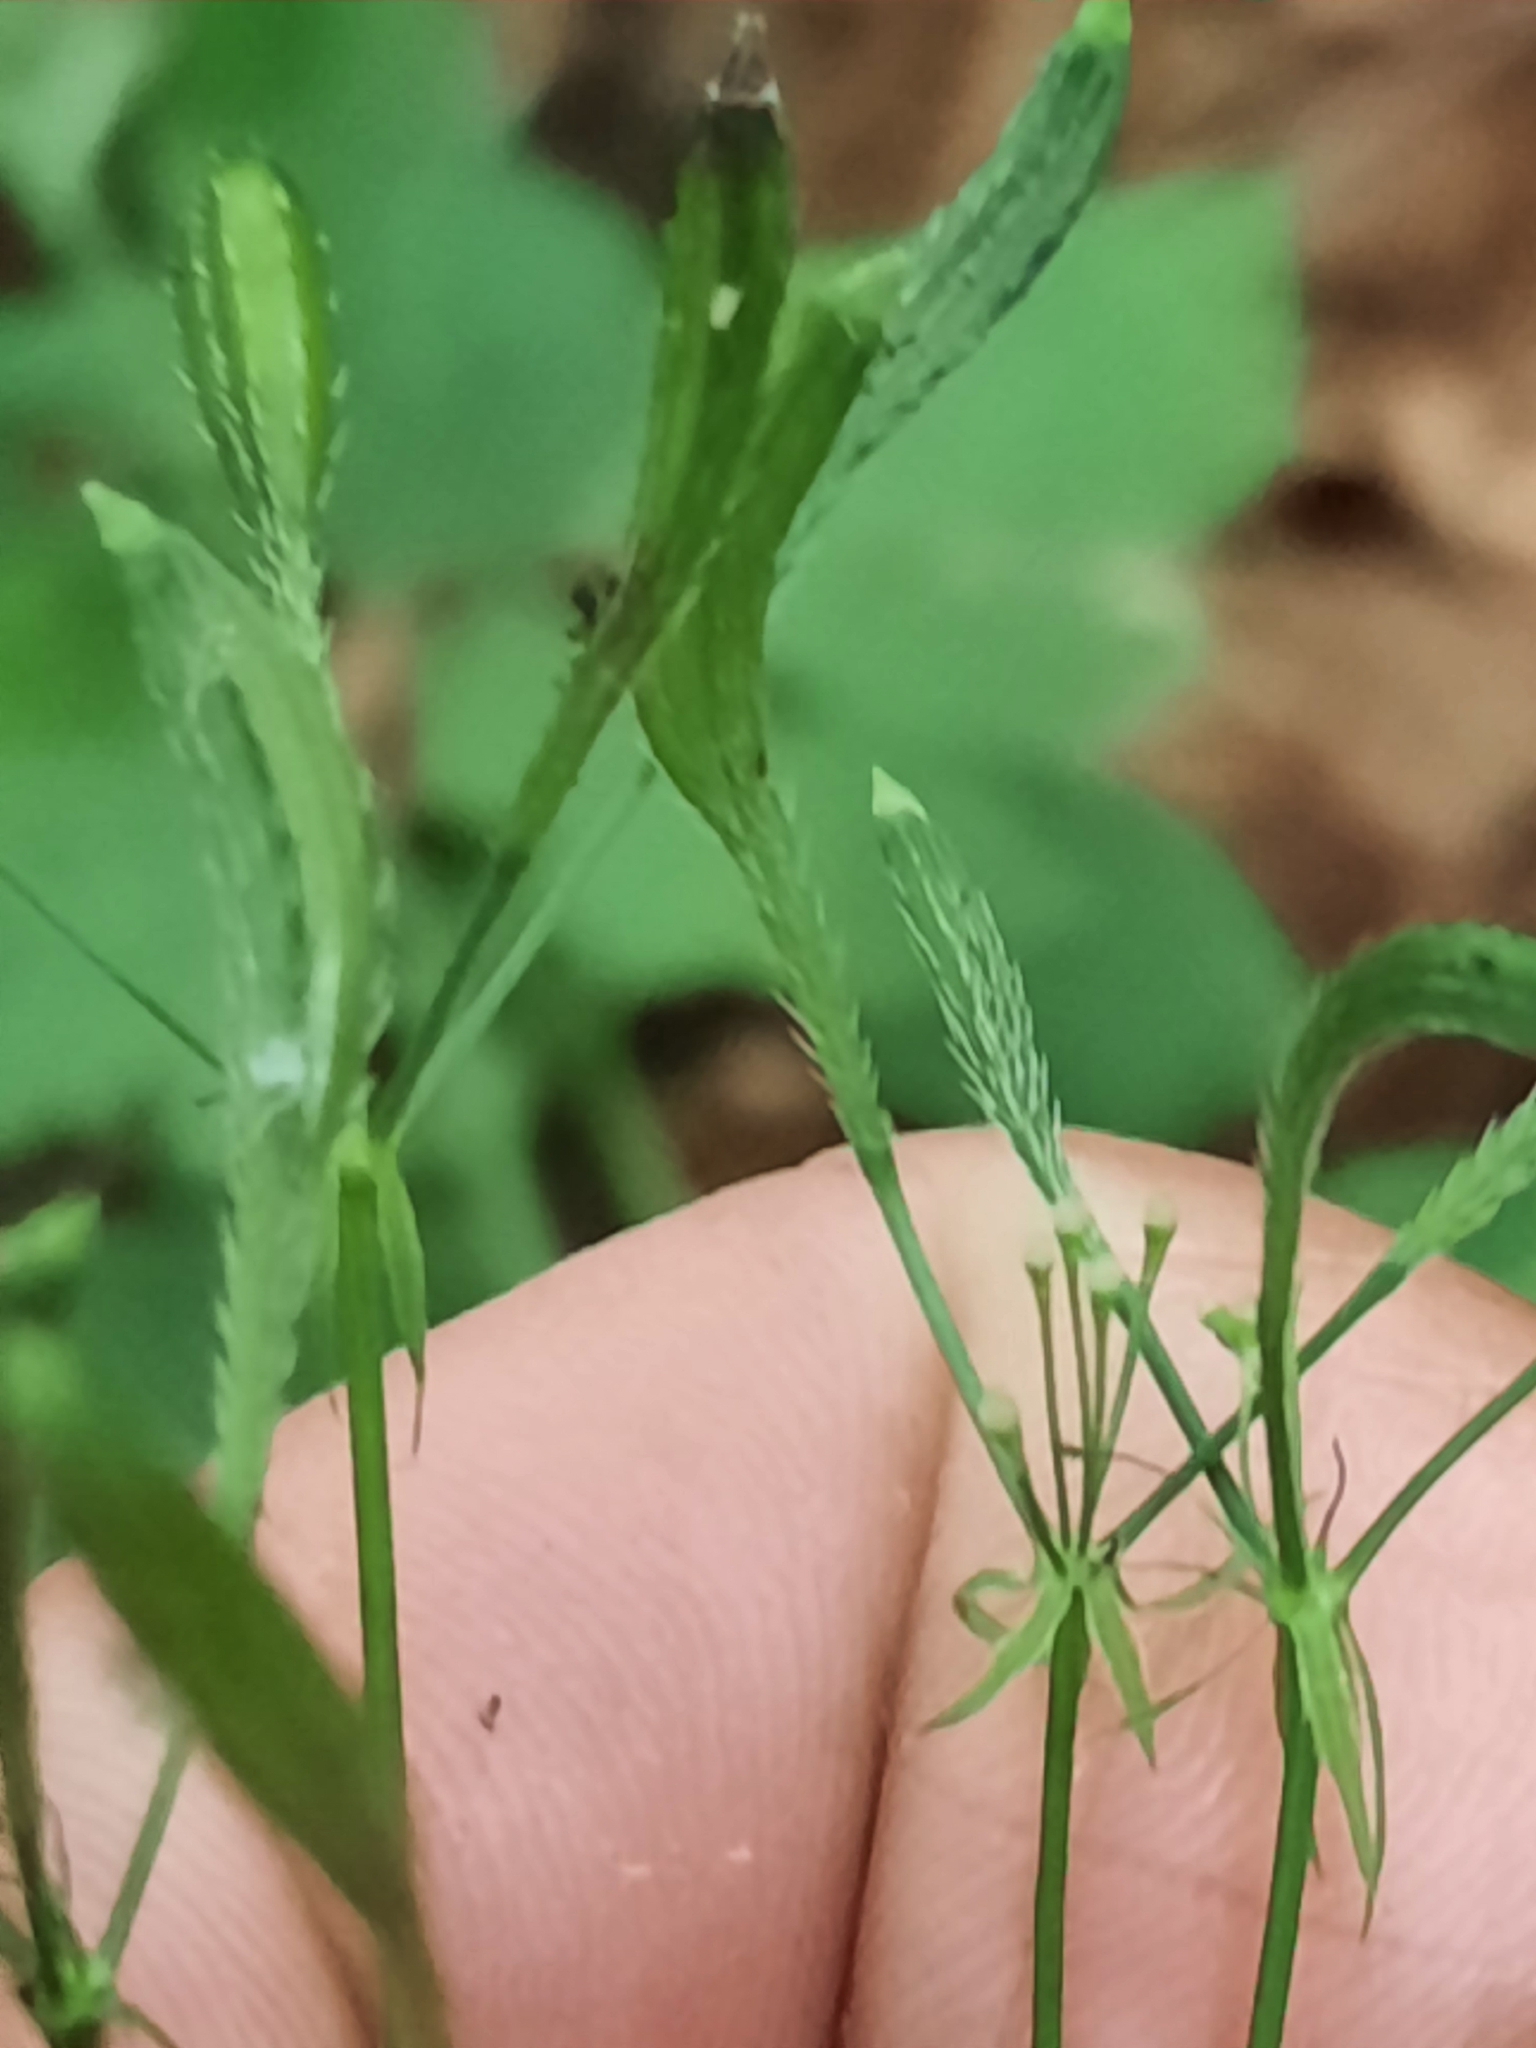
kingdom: Plantae
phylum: Tracheophyta
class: Magnoliopsida
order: Apiales
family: Apiaceae
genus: Osmorhiza
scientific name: Osmorhiza claytonii
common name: Hairy sweet cicely
